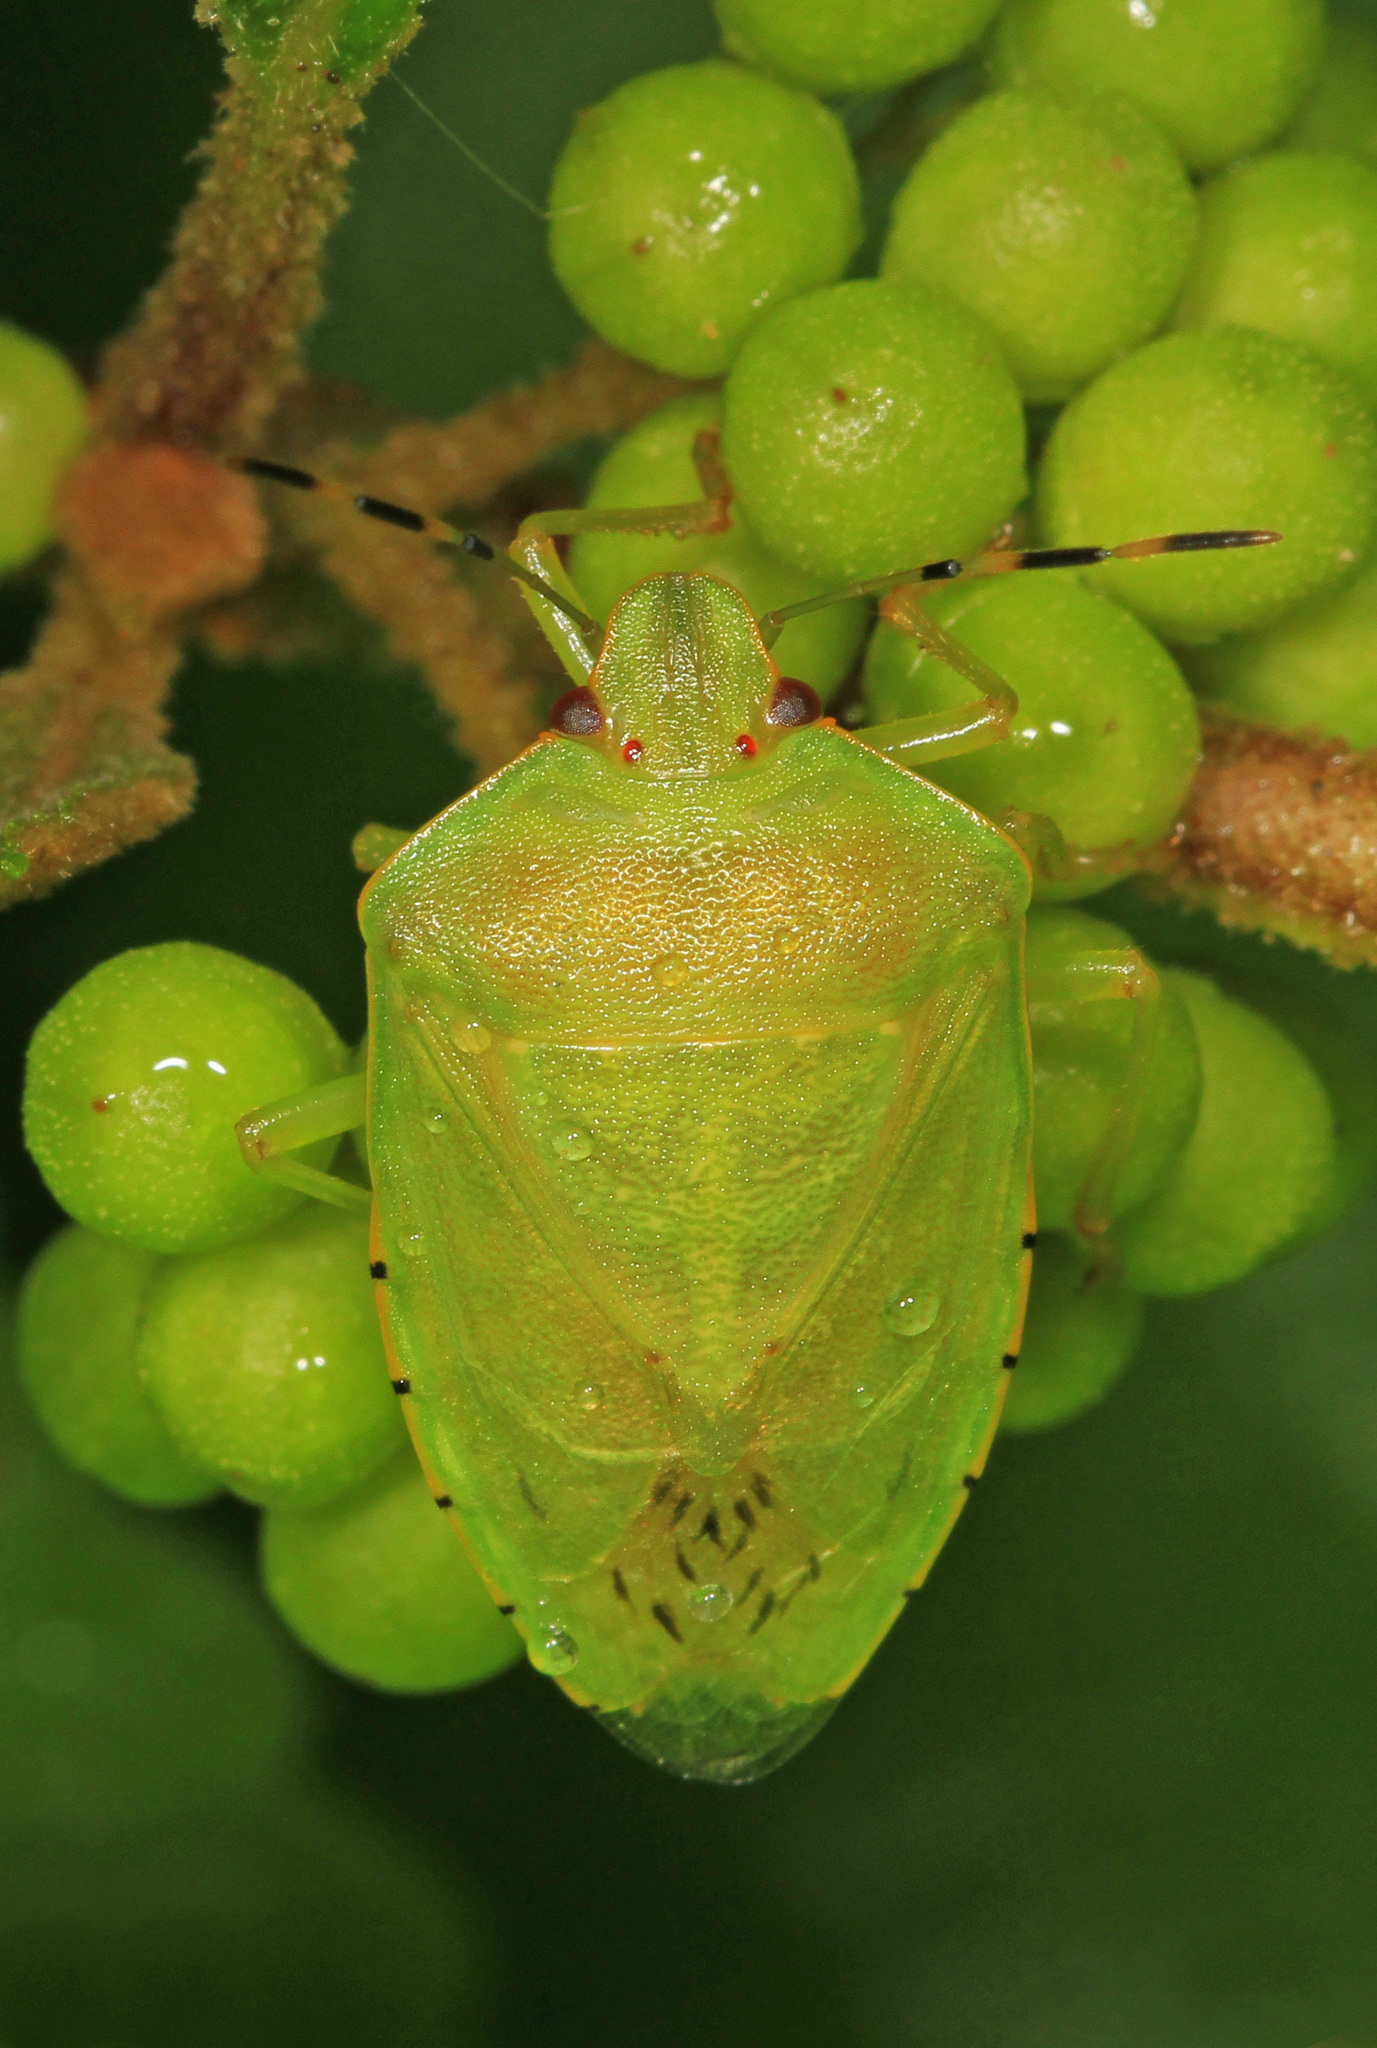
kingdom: Animalia
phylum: Arthropoda
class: Insecta
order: Hemiptera
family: Pentatomidae
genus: Chinavia
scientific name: Chinavia hilaris
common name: Green stink bug
